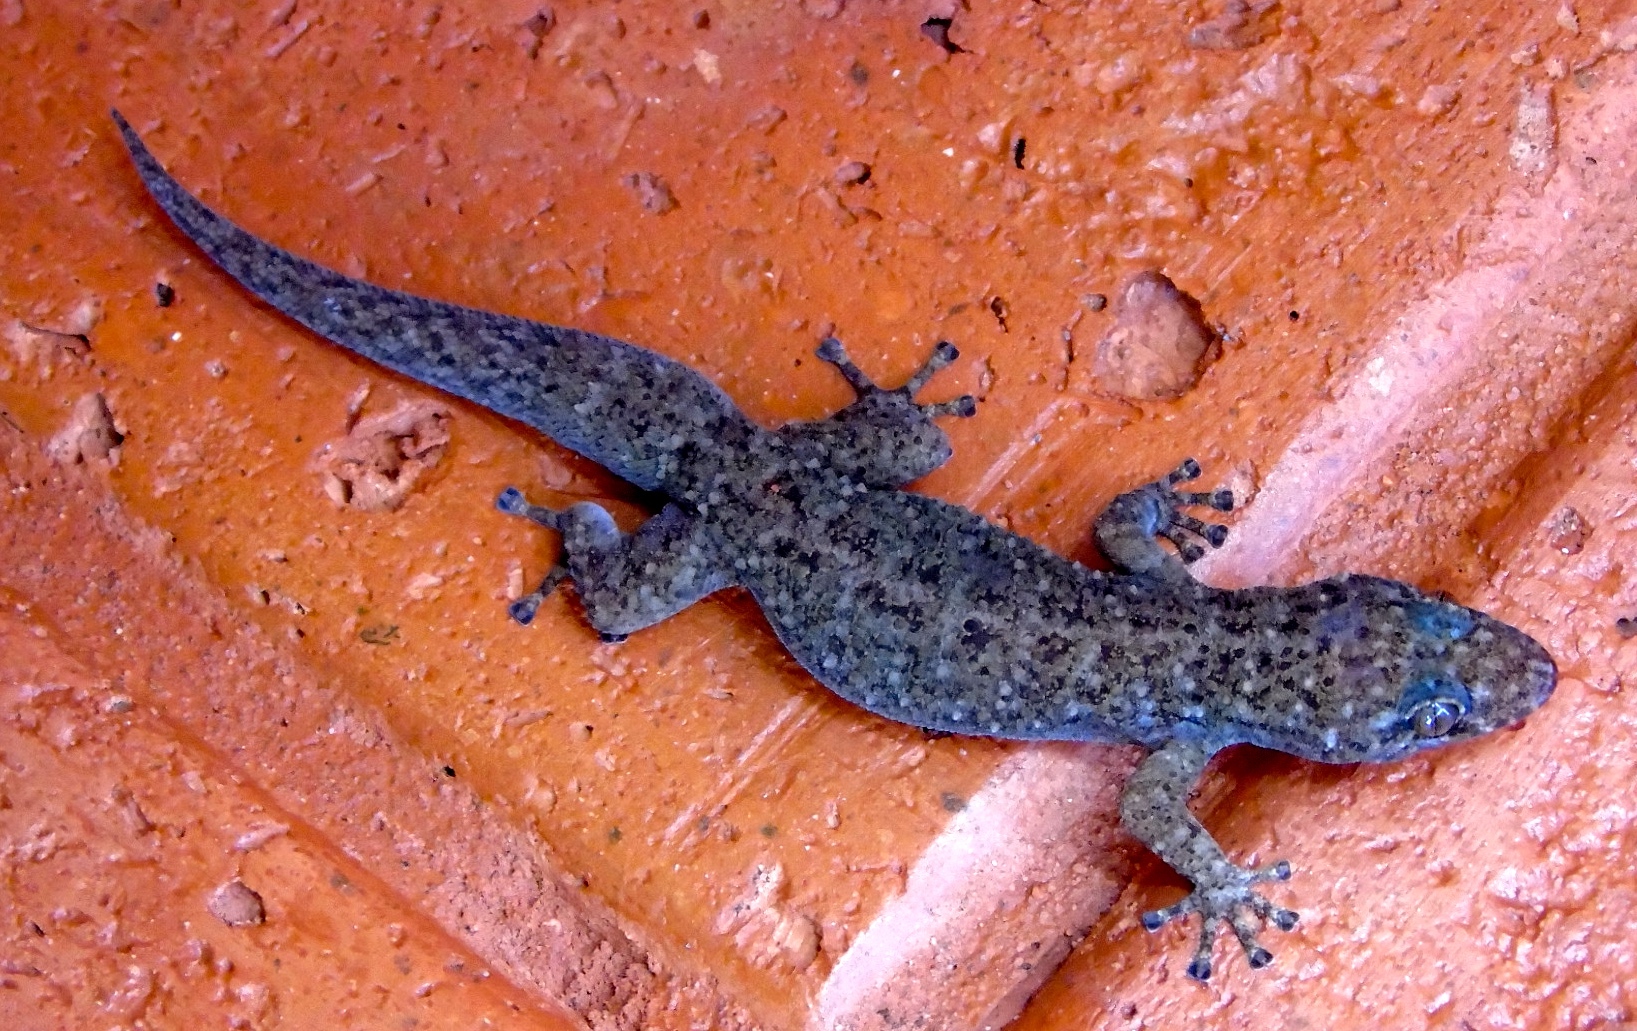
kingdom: Animalia
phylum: Chordata
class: Squamata
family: Phyllodactylidae
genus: Phyllodactylus
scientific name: Phyllodactylus tuberculosus
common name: Yellowbelly  gecko
